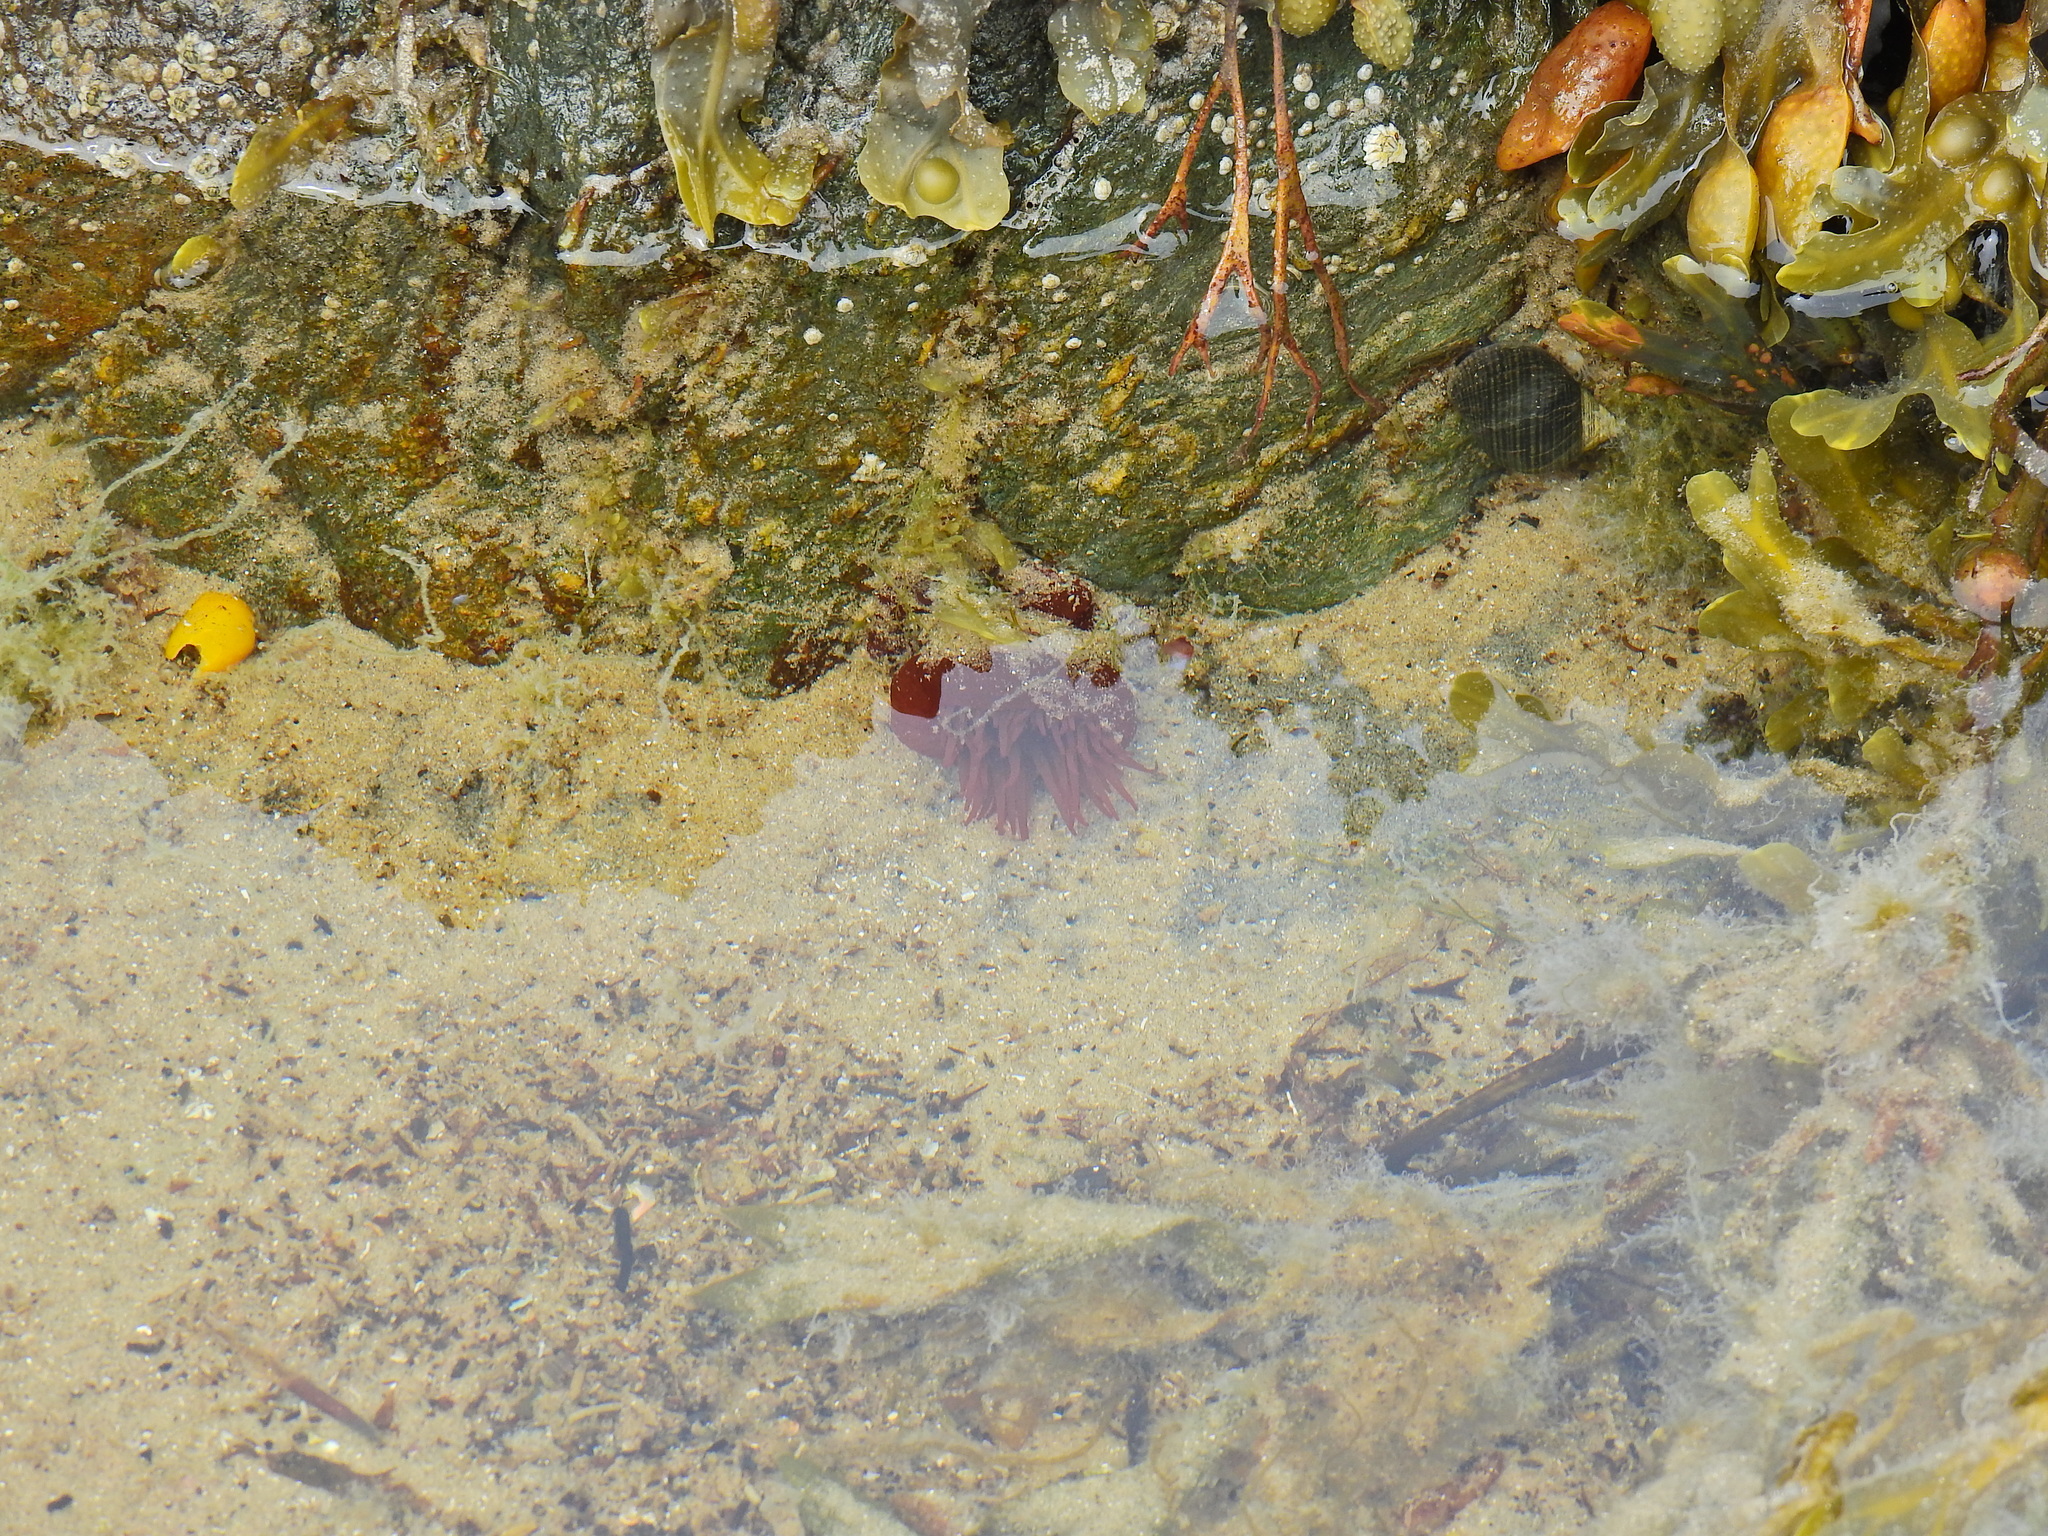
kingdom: Animalia
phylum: Cnidaria
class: Anthozoa
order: Actiniaria
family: Actiniidae
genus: Actinia
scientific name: Actinia equina
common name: Beadlet anemone
